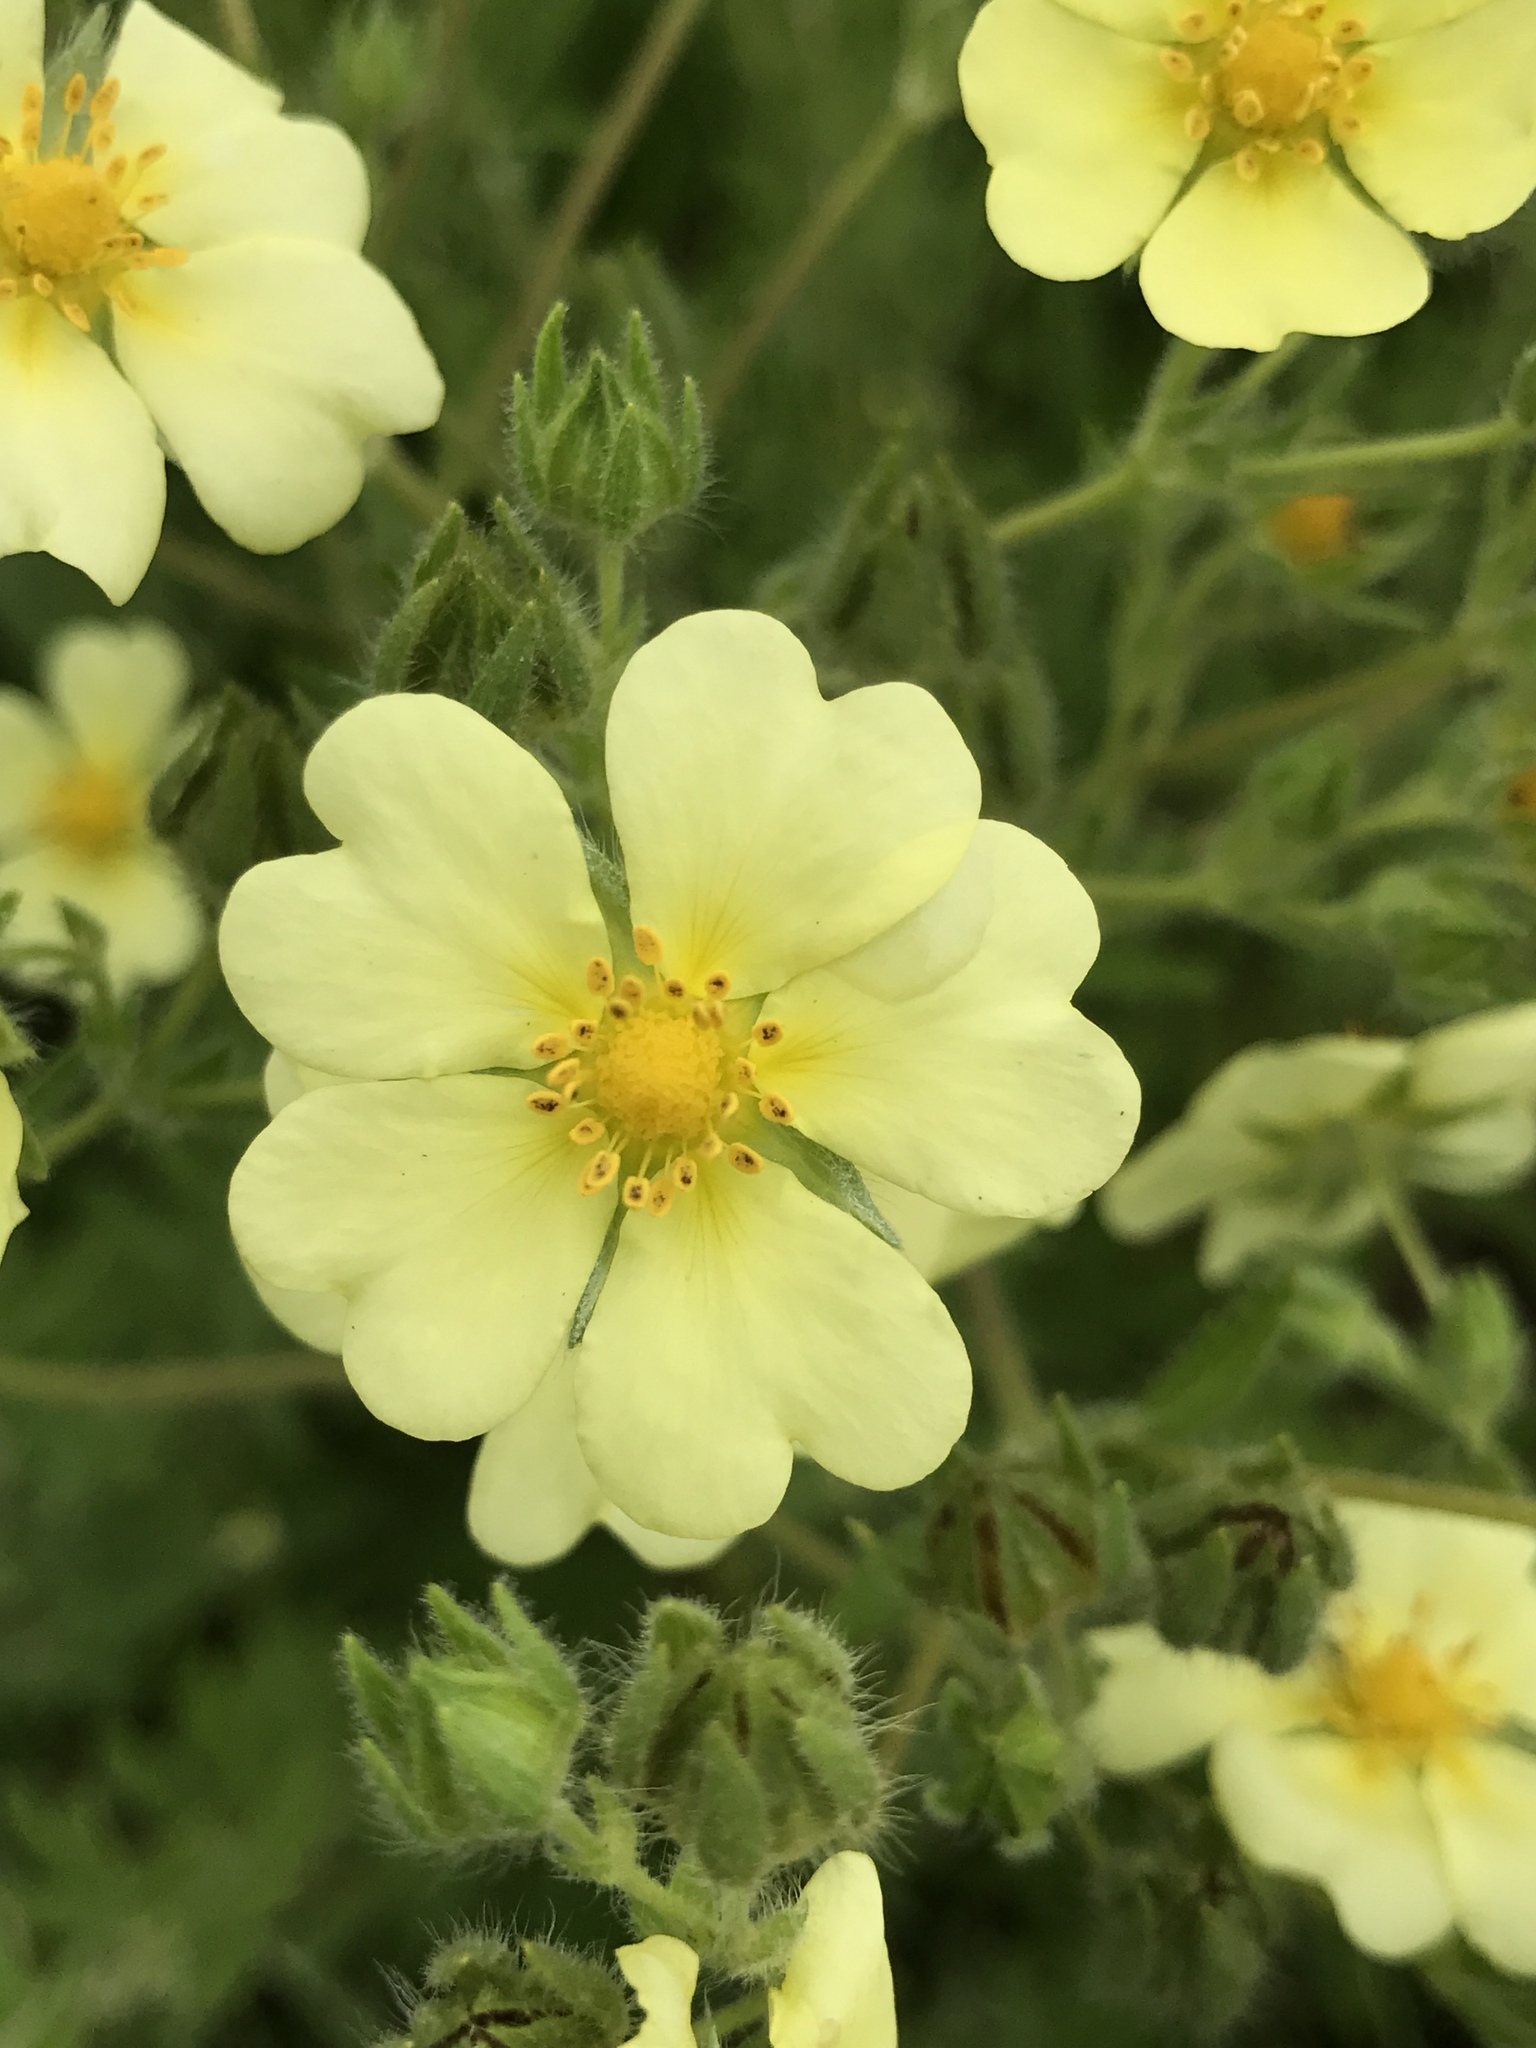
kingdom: Plantae
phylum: Tracheophyta
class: Magnoliopsida
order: Rosales
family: Rosaceae
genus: Potentilla
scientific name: Potentilla recta
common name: Sulphur cinquefoil
